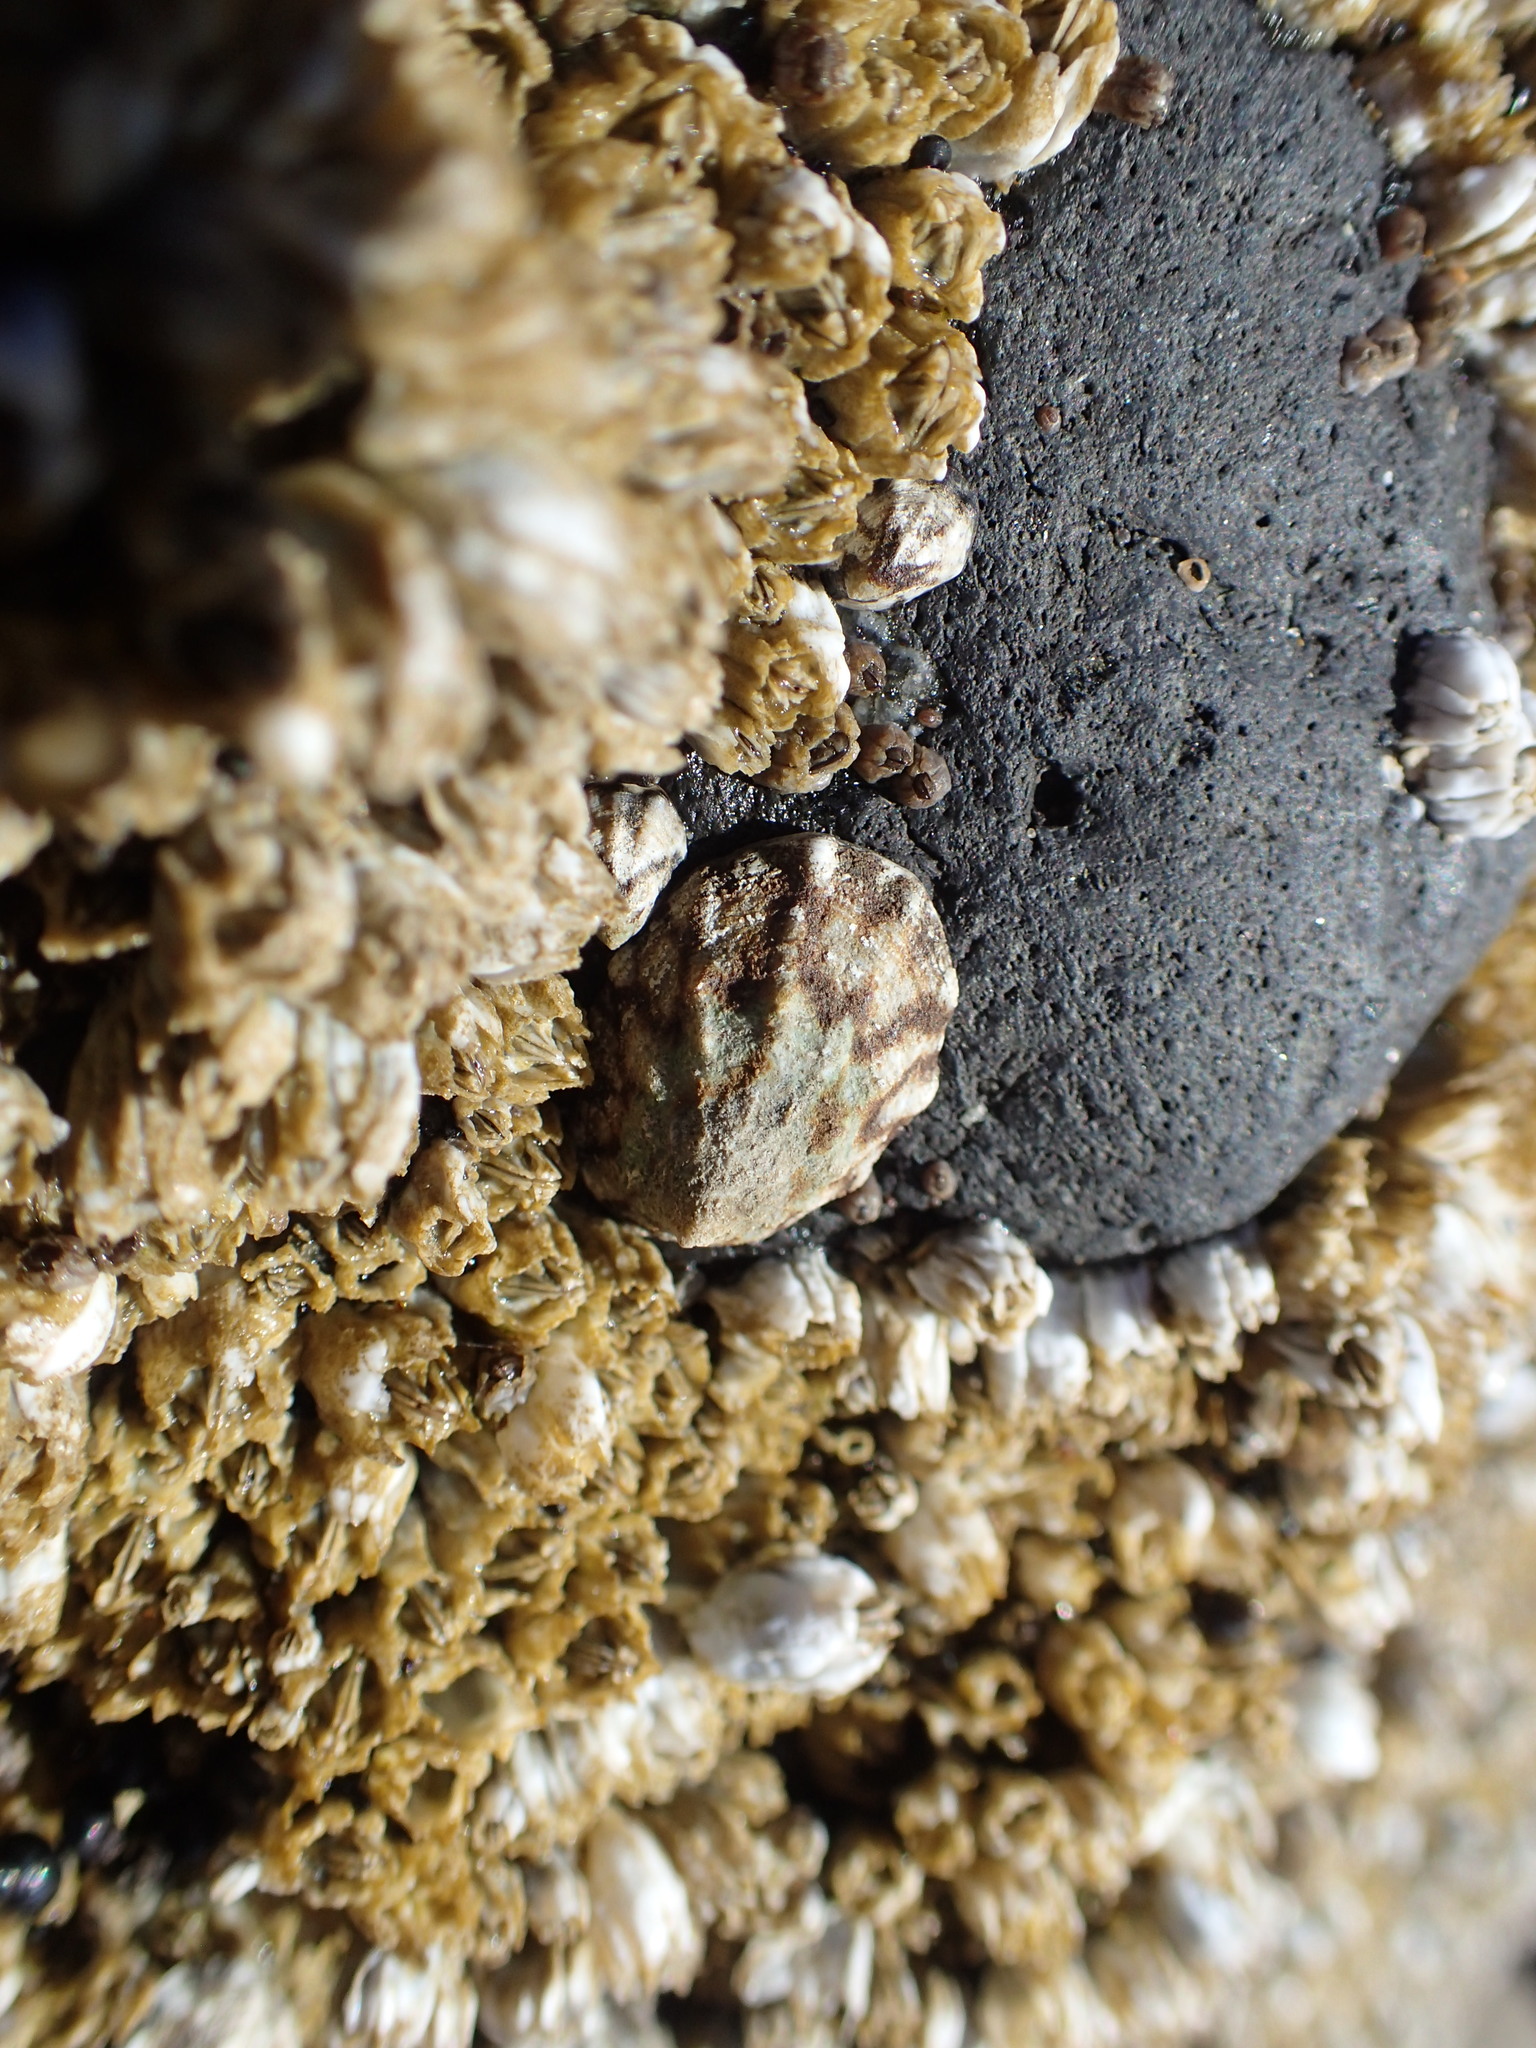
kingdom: Animalia
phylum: Mollusca
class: Gastropoda
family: Lottiidae
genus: Lottia
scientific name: Lottia digitalis
